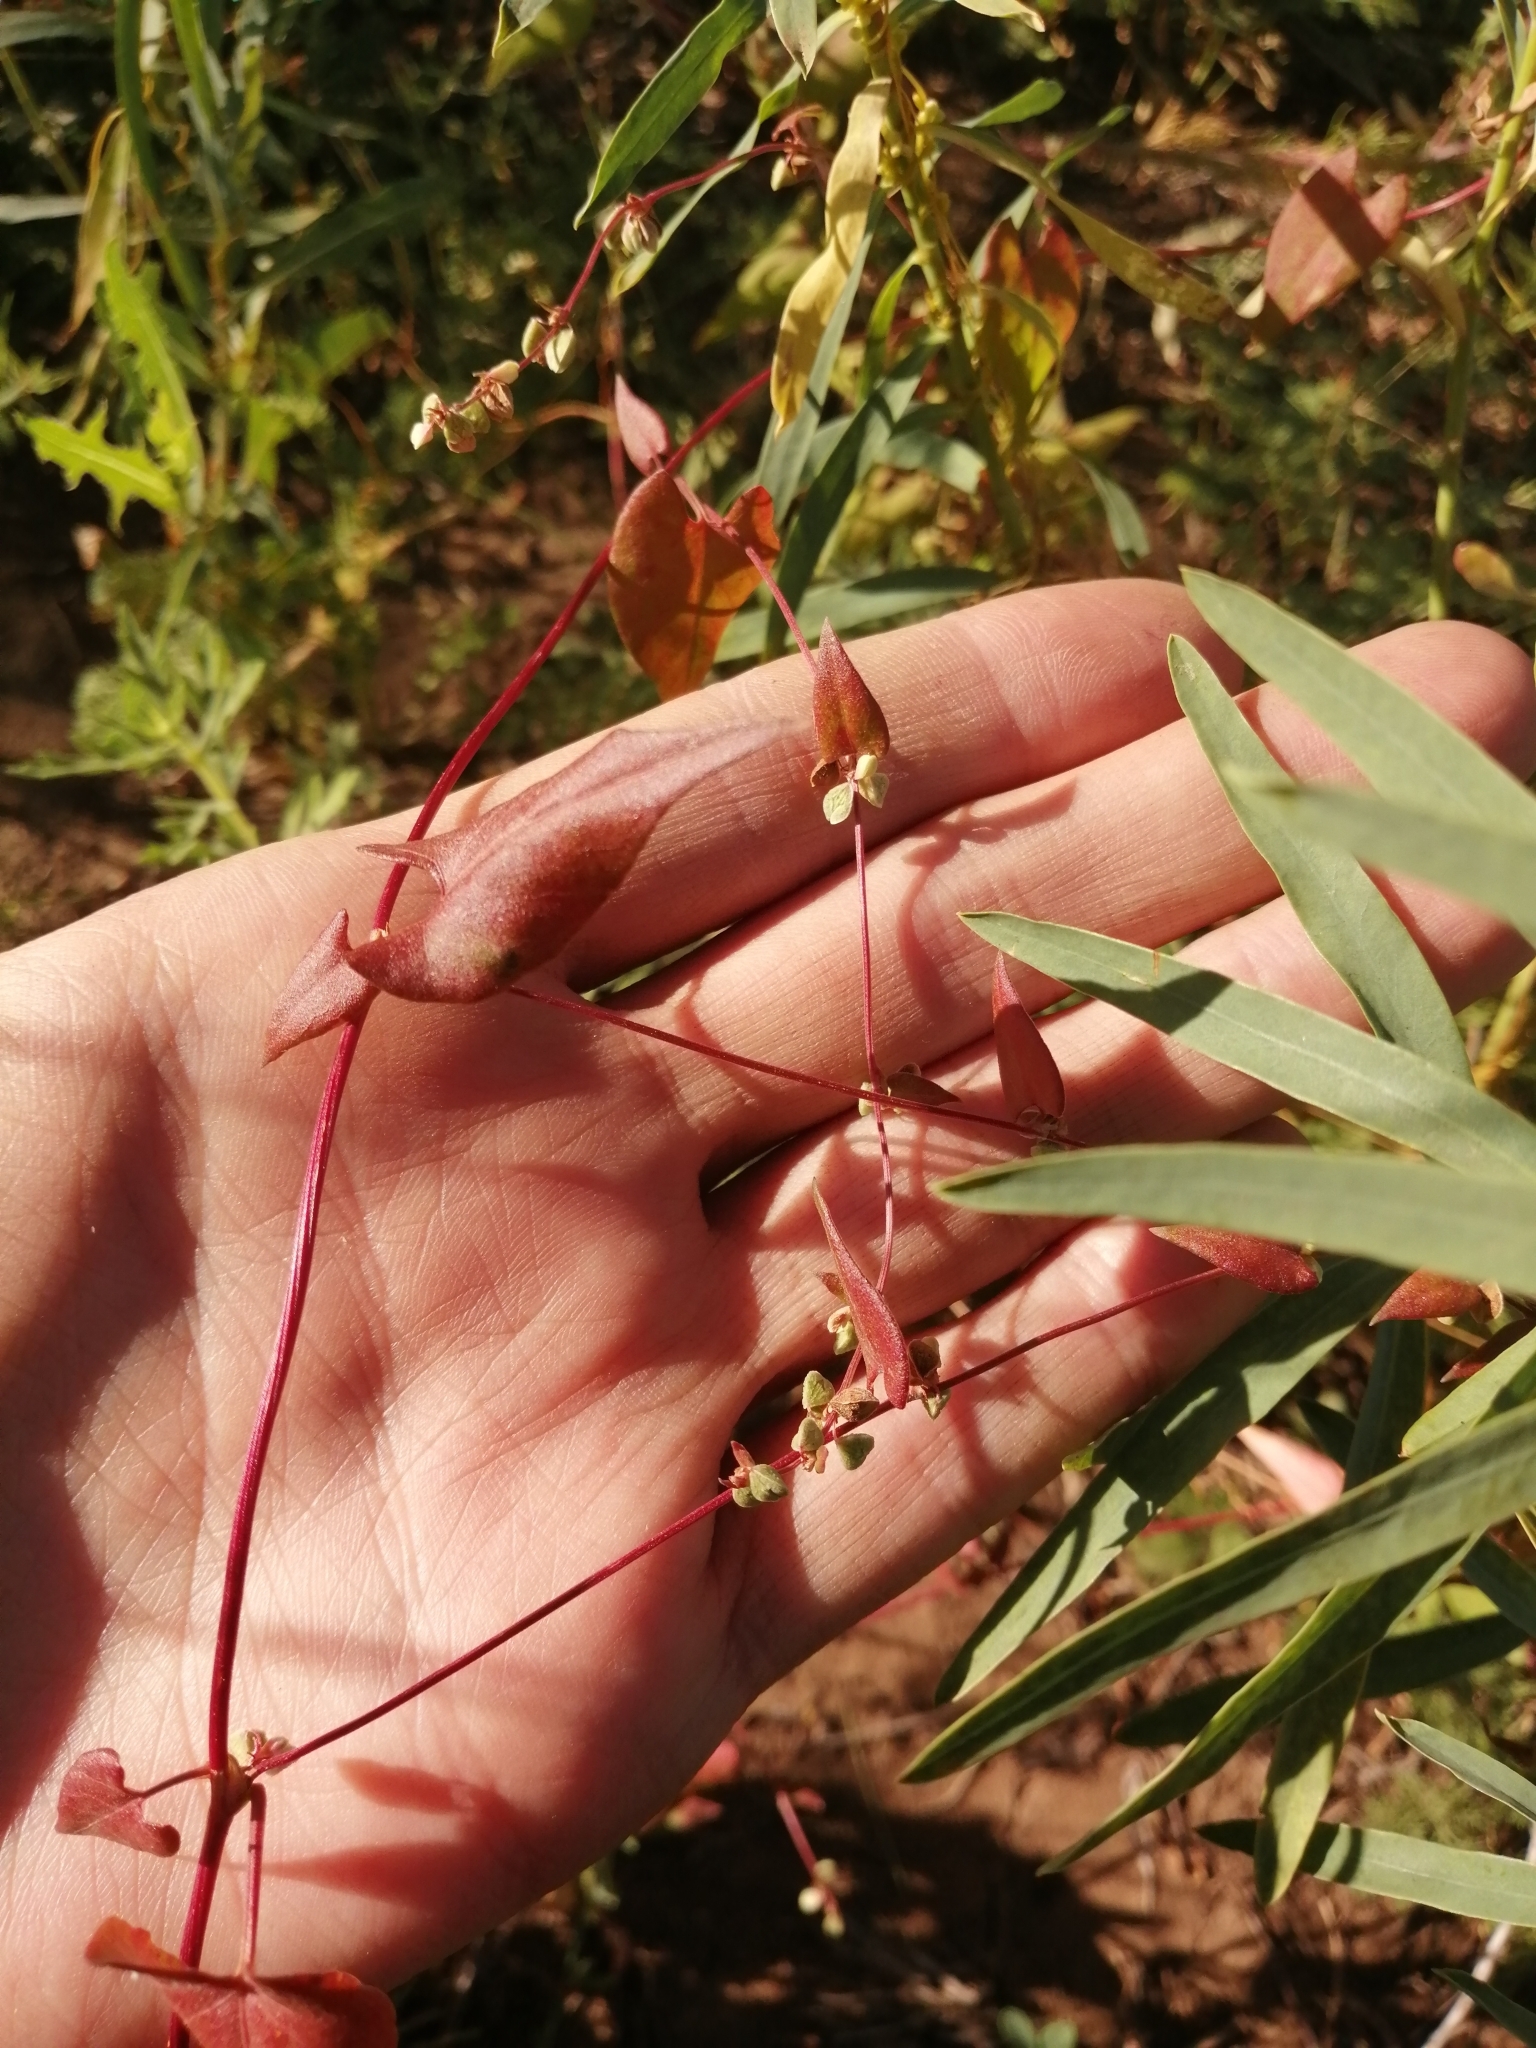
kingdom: Plantae
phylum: Tracheophyta
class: Magnoliopsida
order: Caryophyllales
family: Polygonaceae
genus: Fallopia
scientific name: Fallopia convolvulus
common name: Black bindweed
